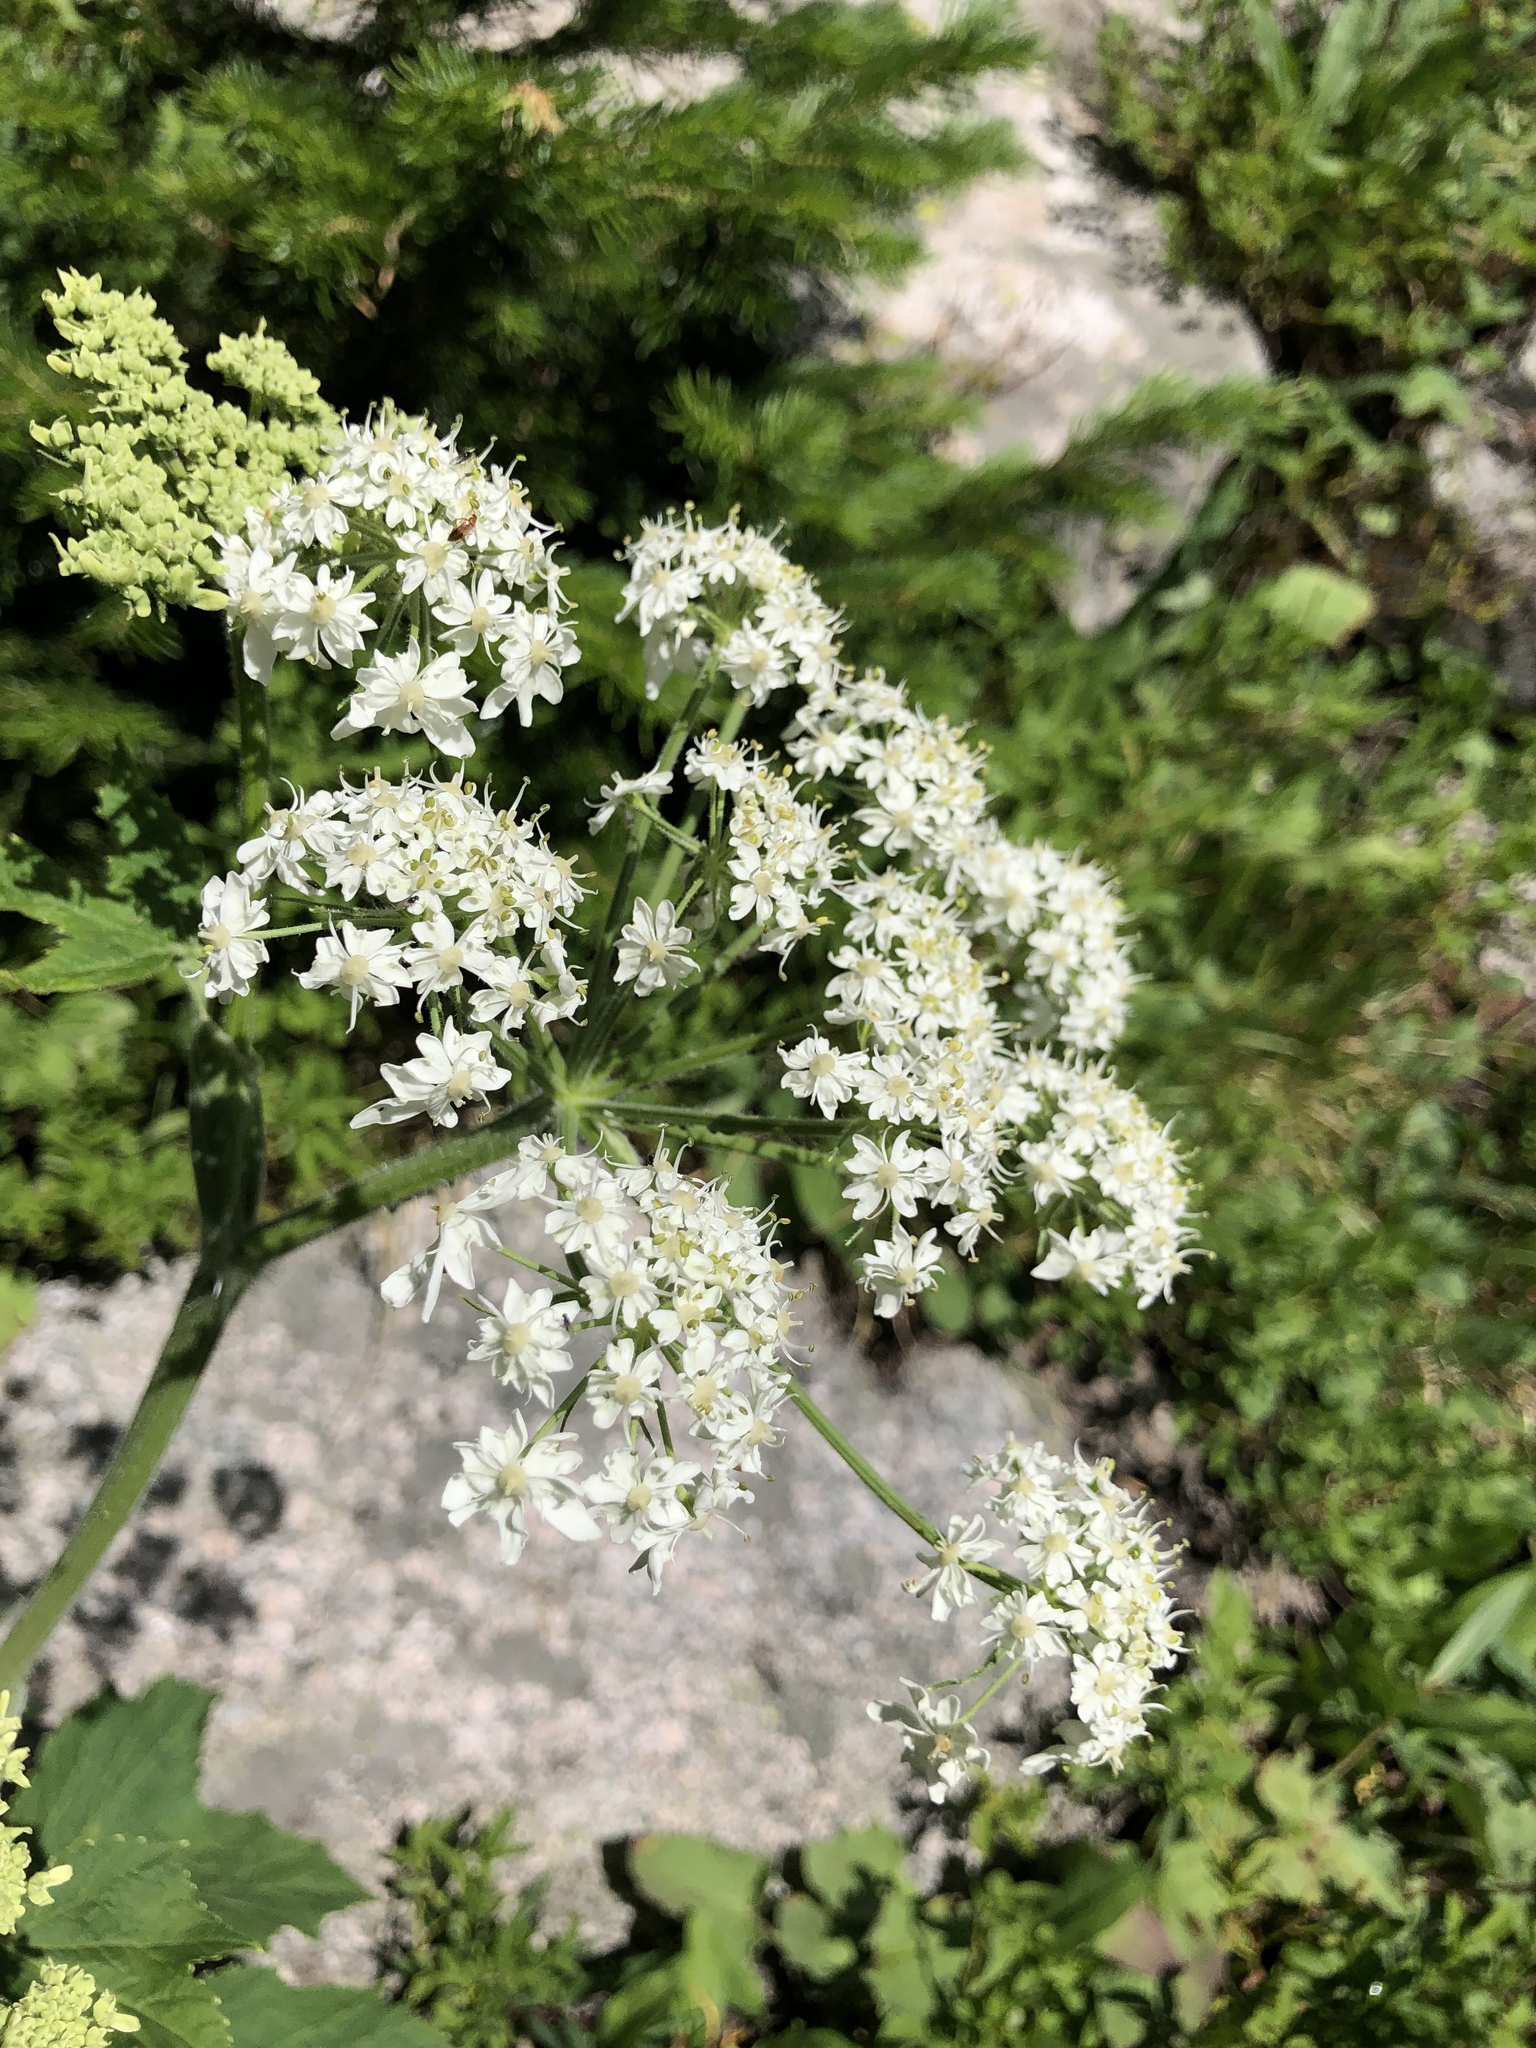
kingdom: Plantae
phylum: Tracheophyta
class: Magnoliopsida
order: Apiales
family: Apiaceae
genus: Heracleum
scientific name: Heracleum maximum
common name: American cow parsnip
